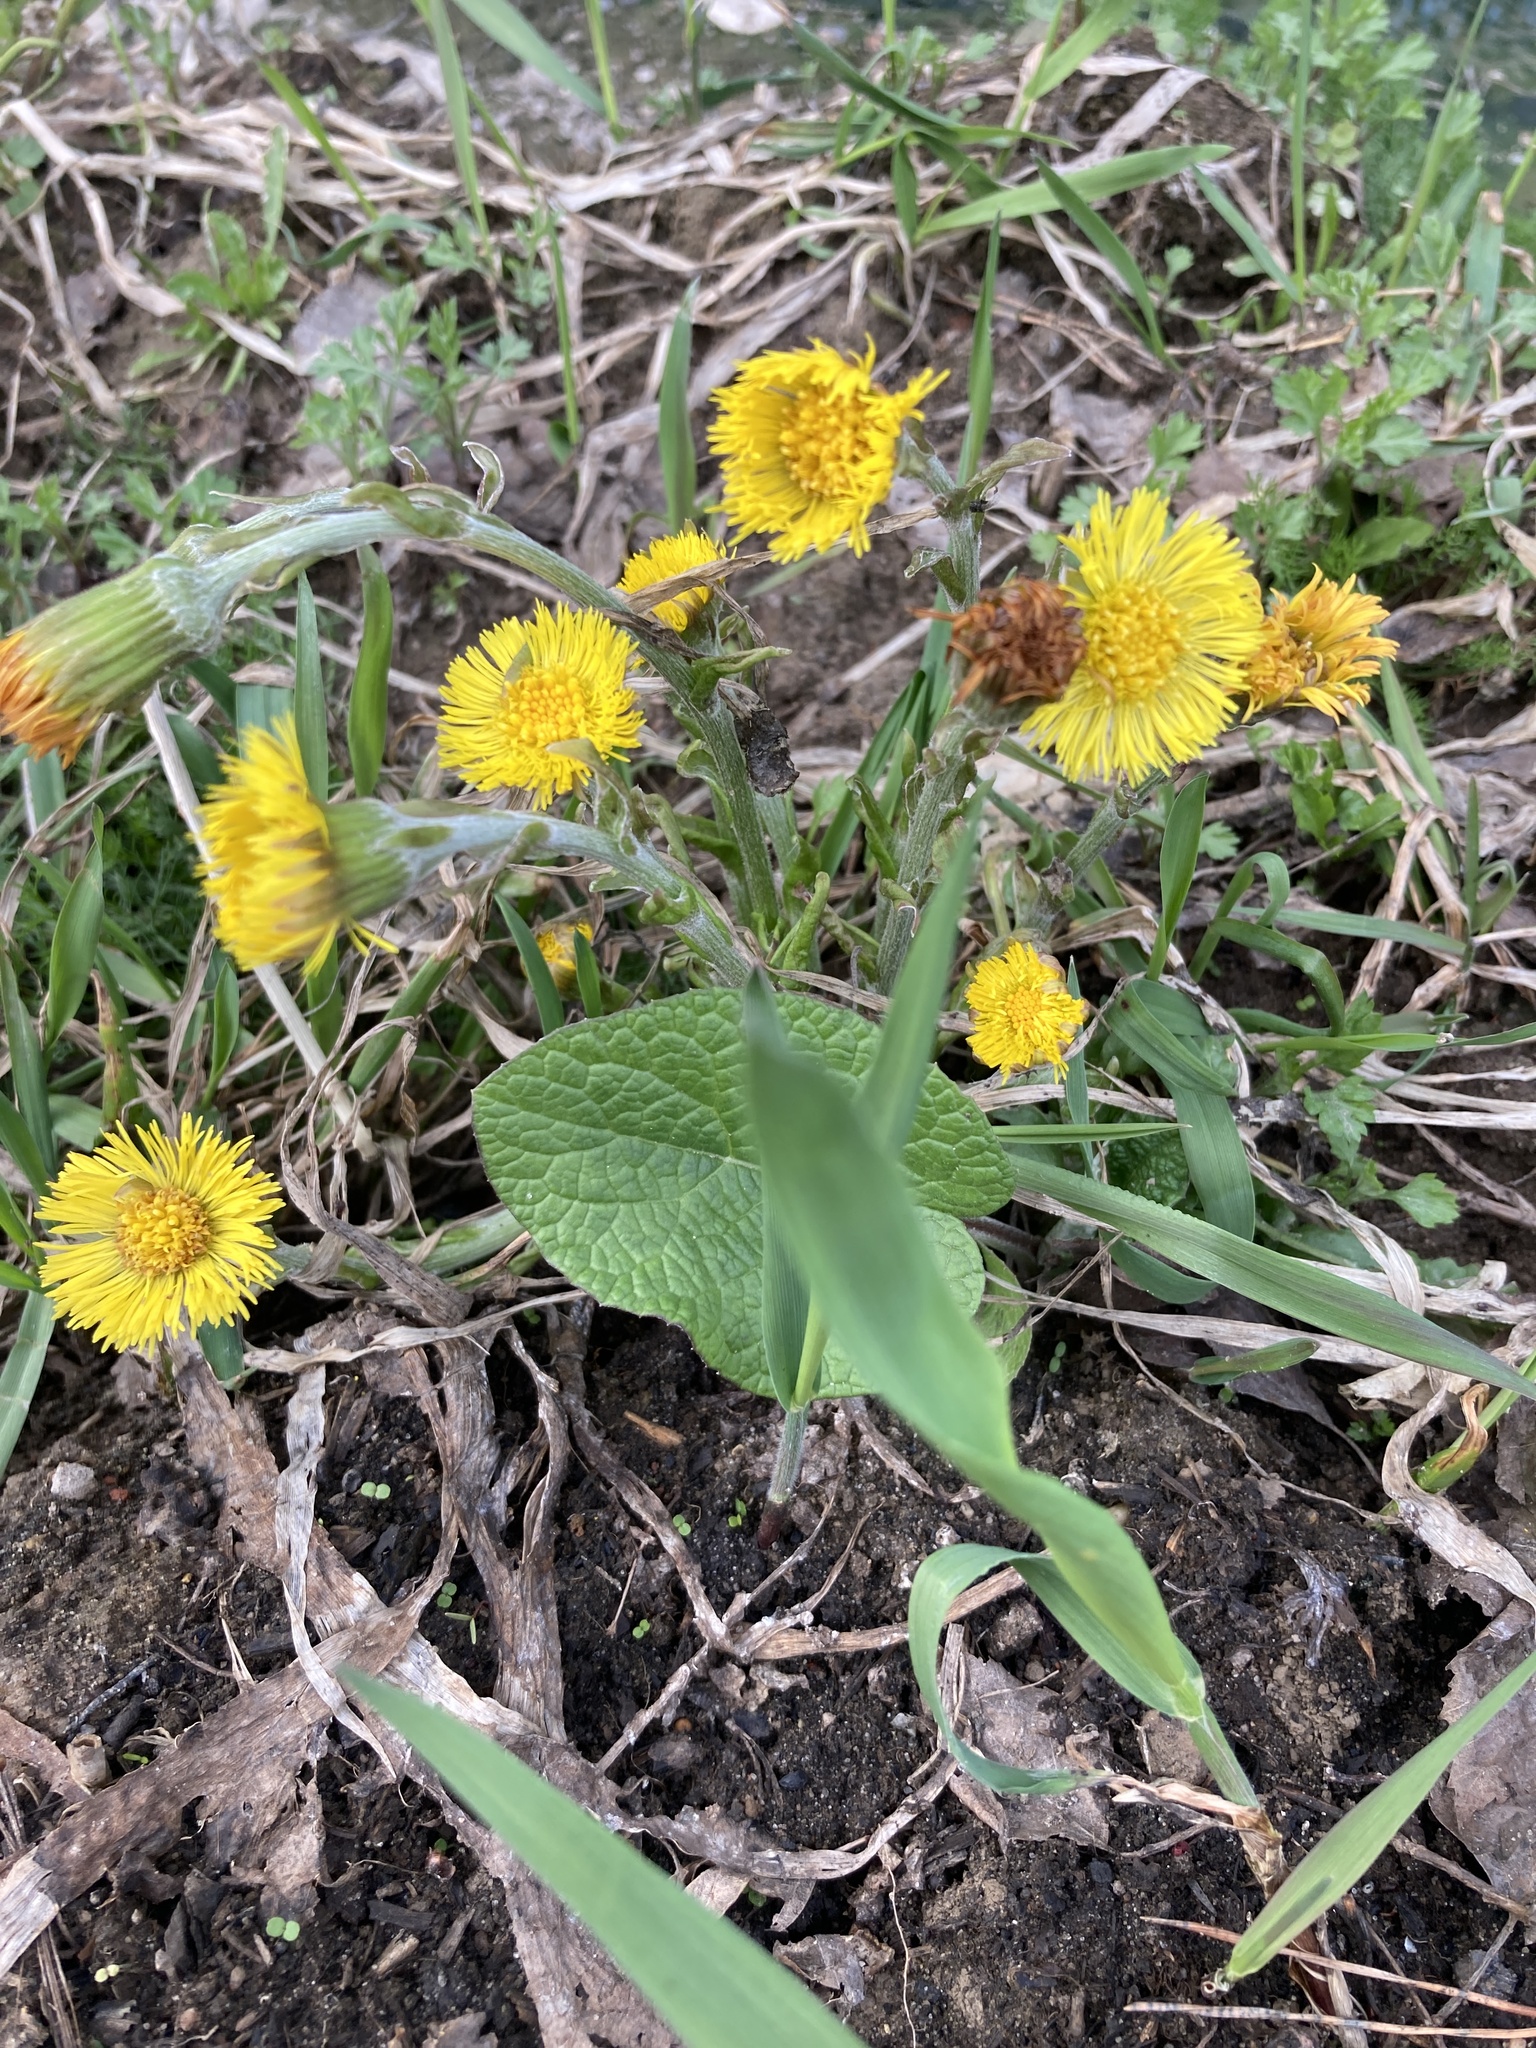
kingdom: Plantae
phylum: Tracheophyta
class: Magnoliopsida
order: Asterales
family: Asteraceae
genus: Tussilago
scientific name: Tussilago farfara
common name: Coltsfoot
